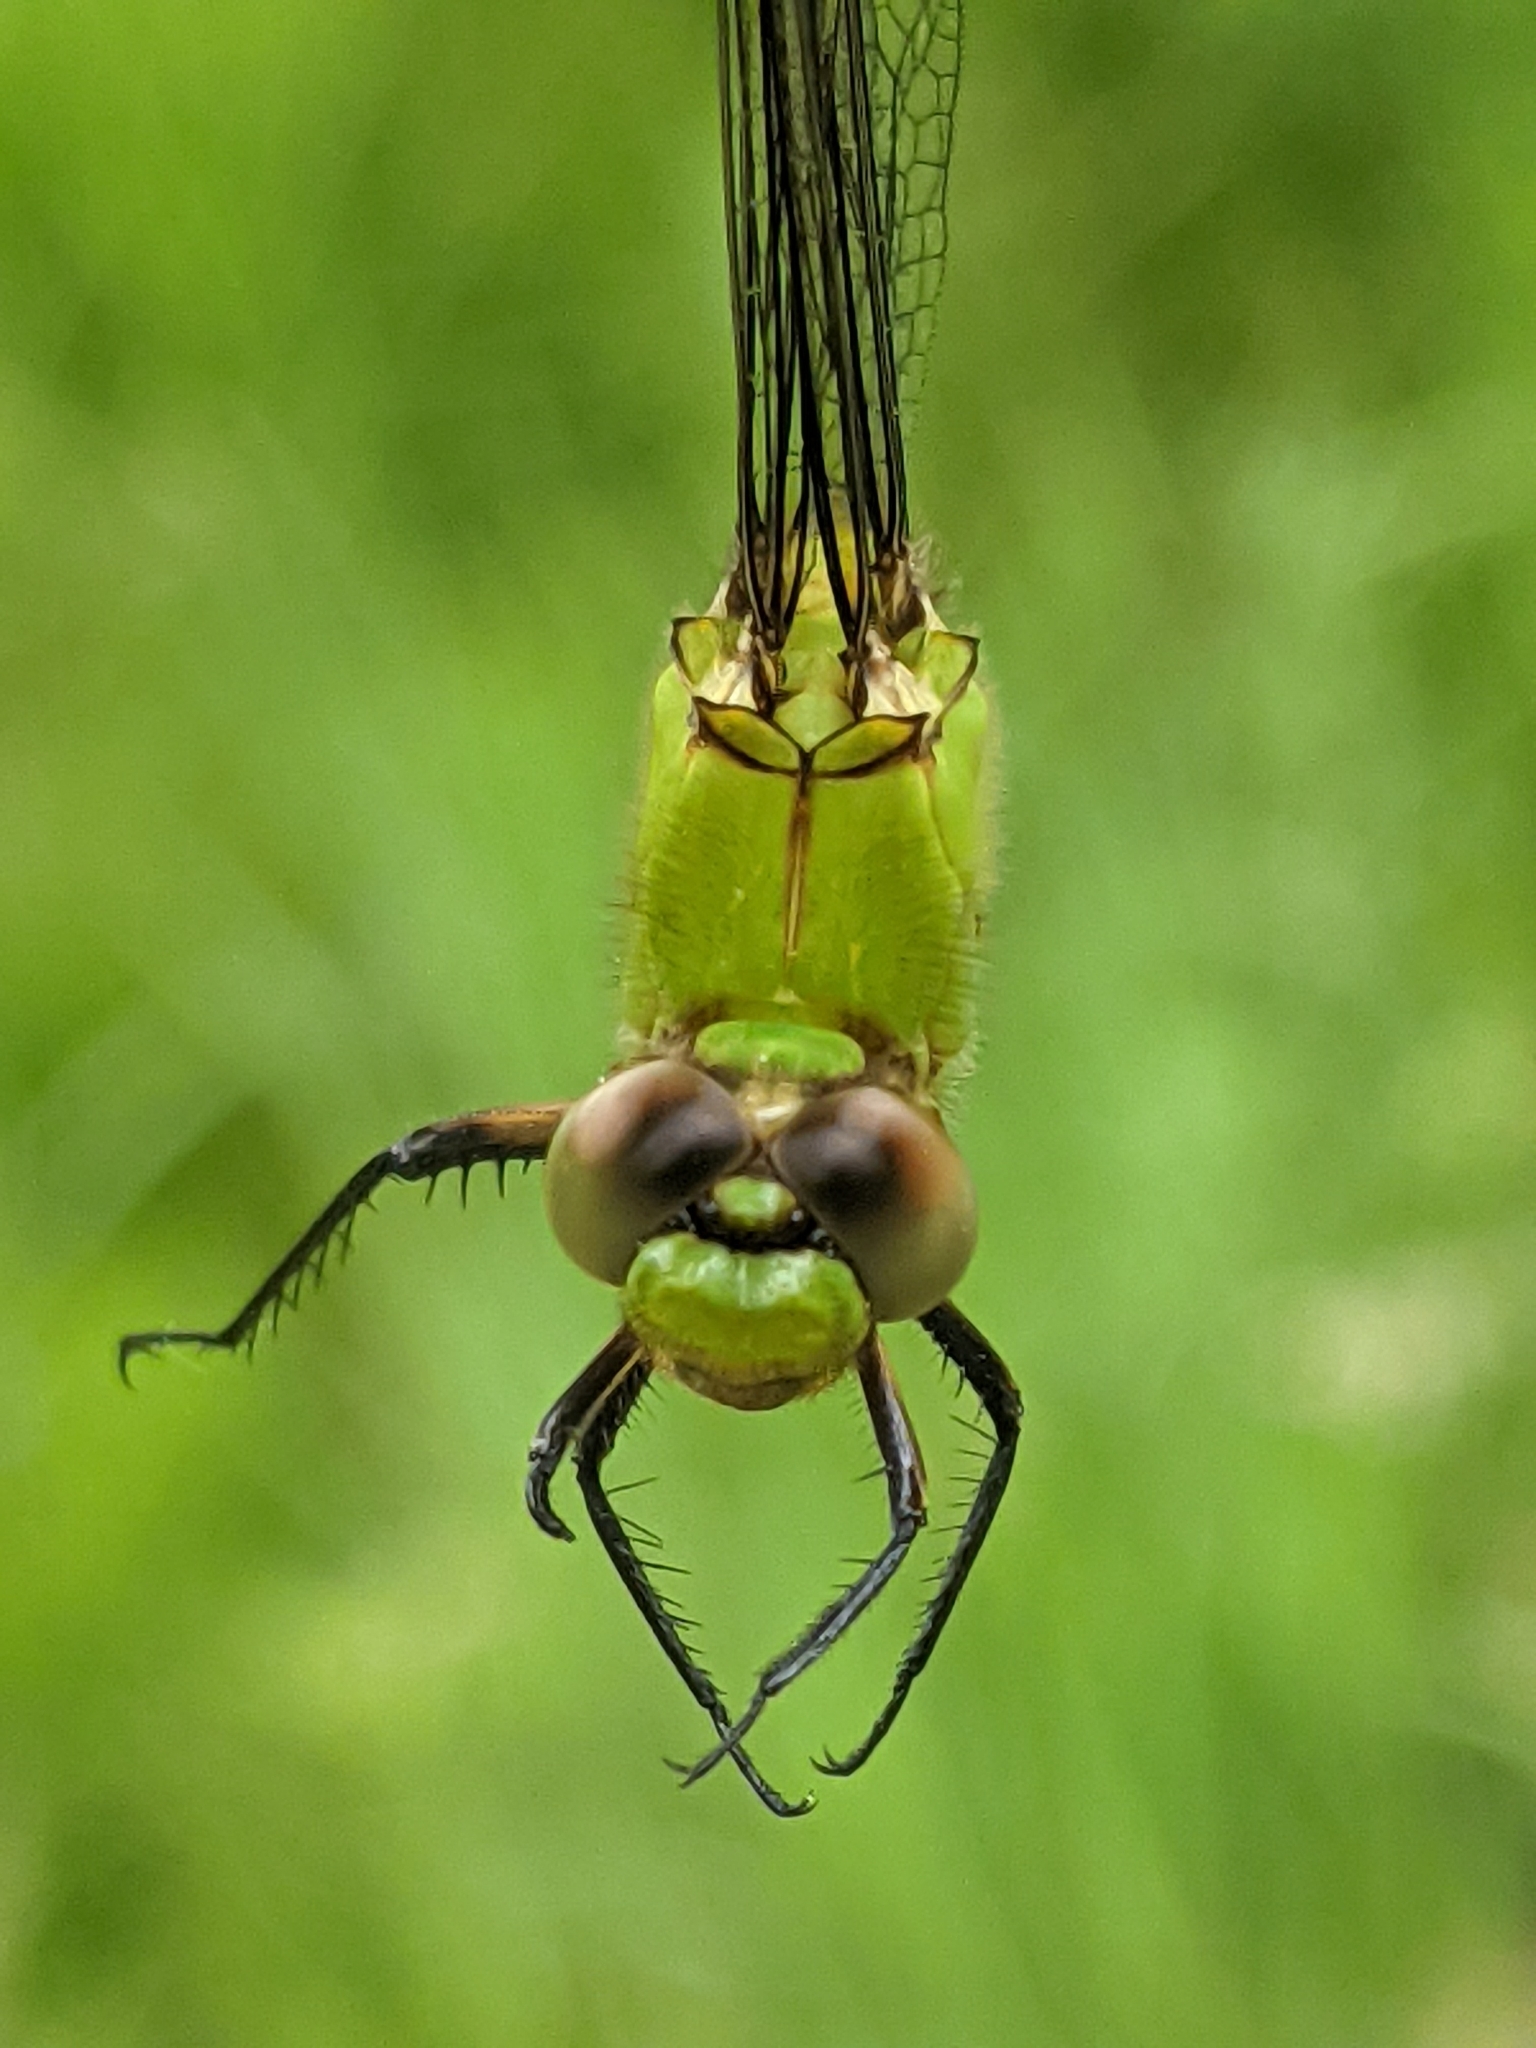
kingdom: Animalia
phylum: Arthropoda
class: Insecta
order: Odonata
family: Libellulidae
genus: Erythemis
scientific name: Erythemis simplicicollis
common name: Eastern pondhawk
